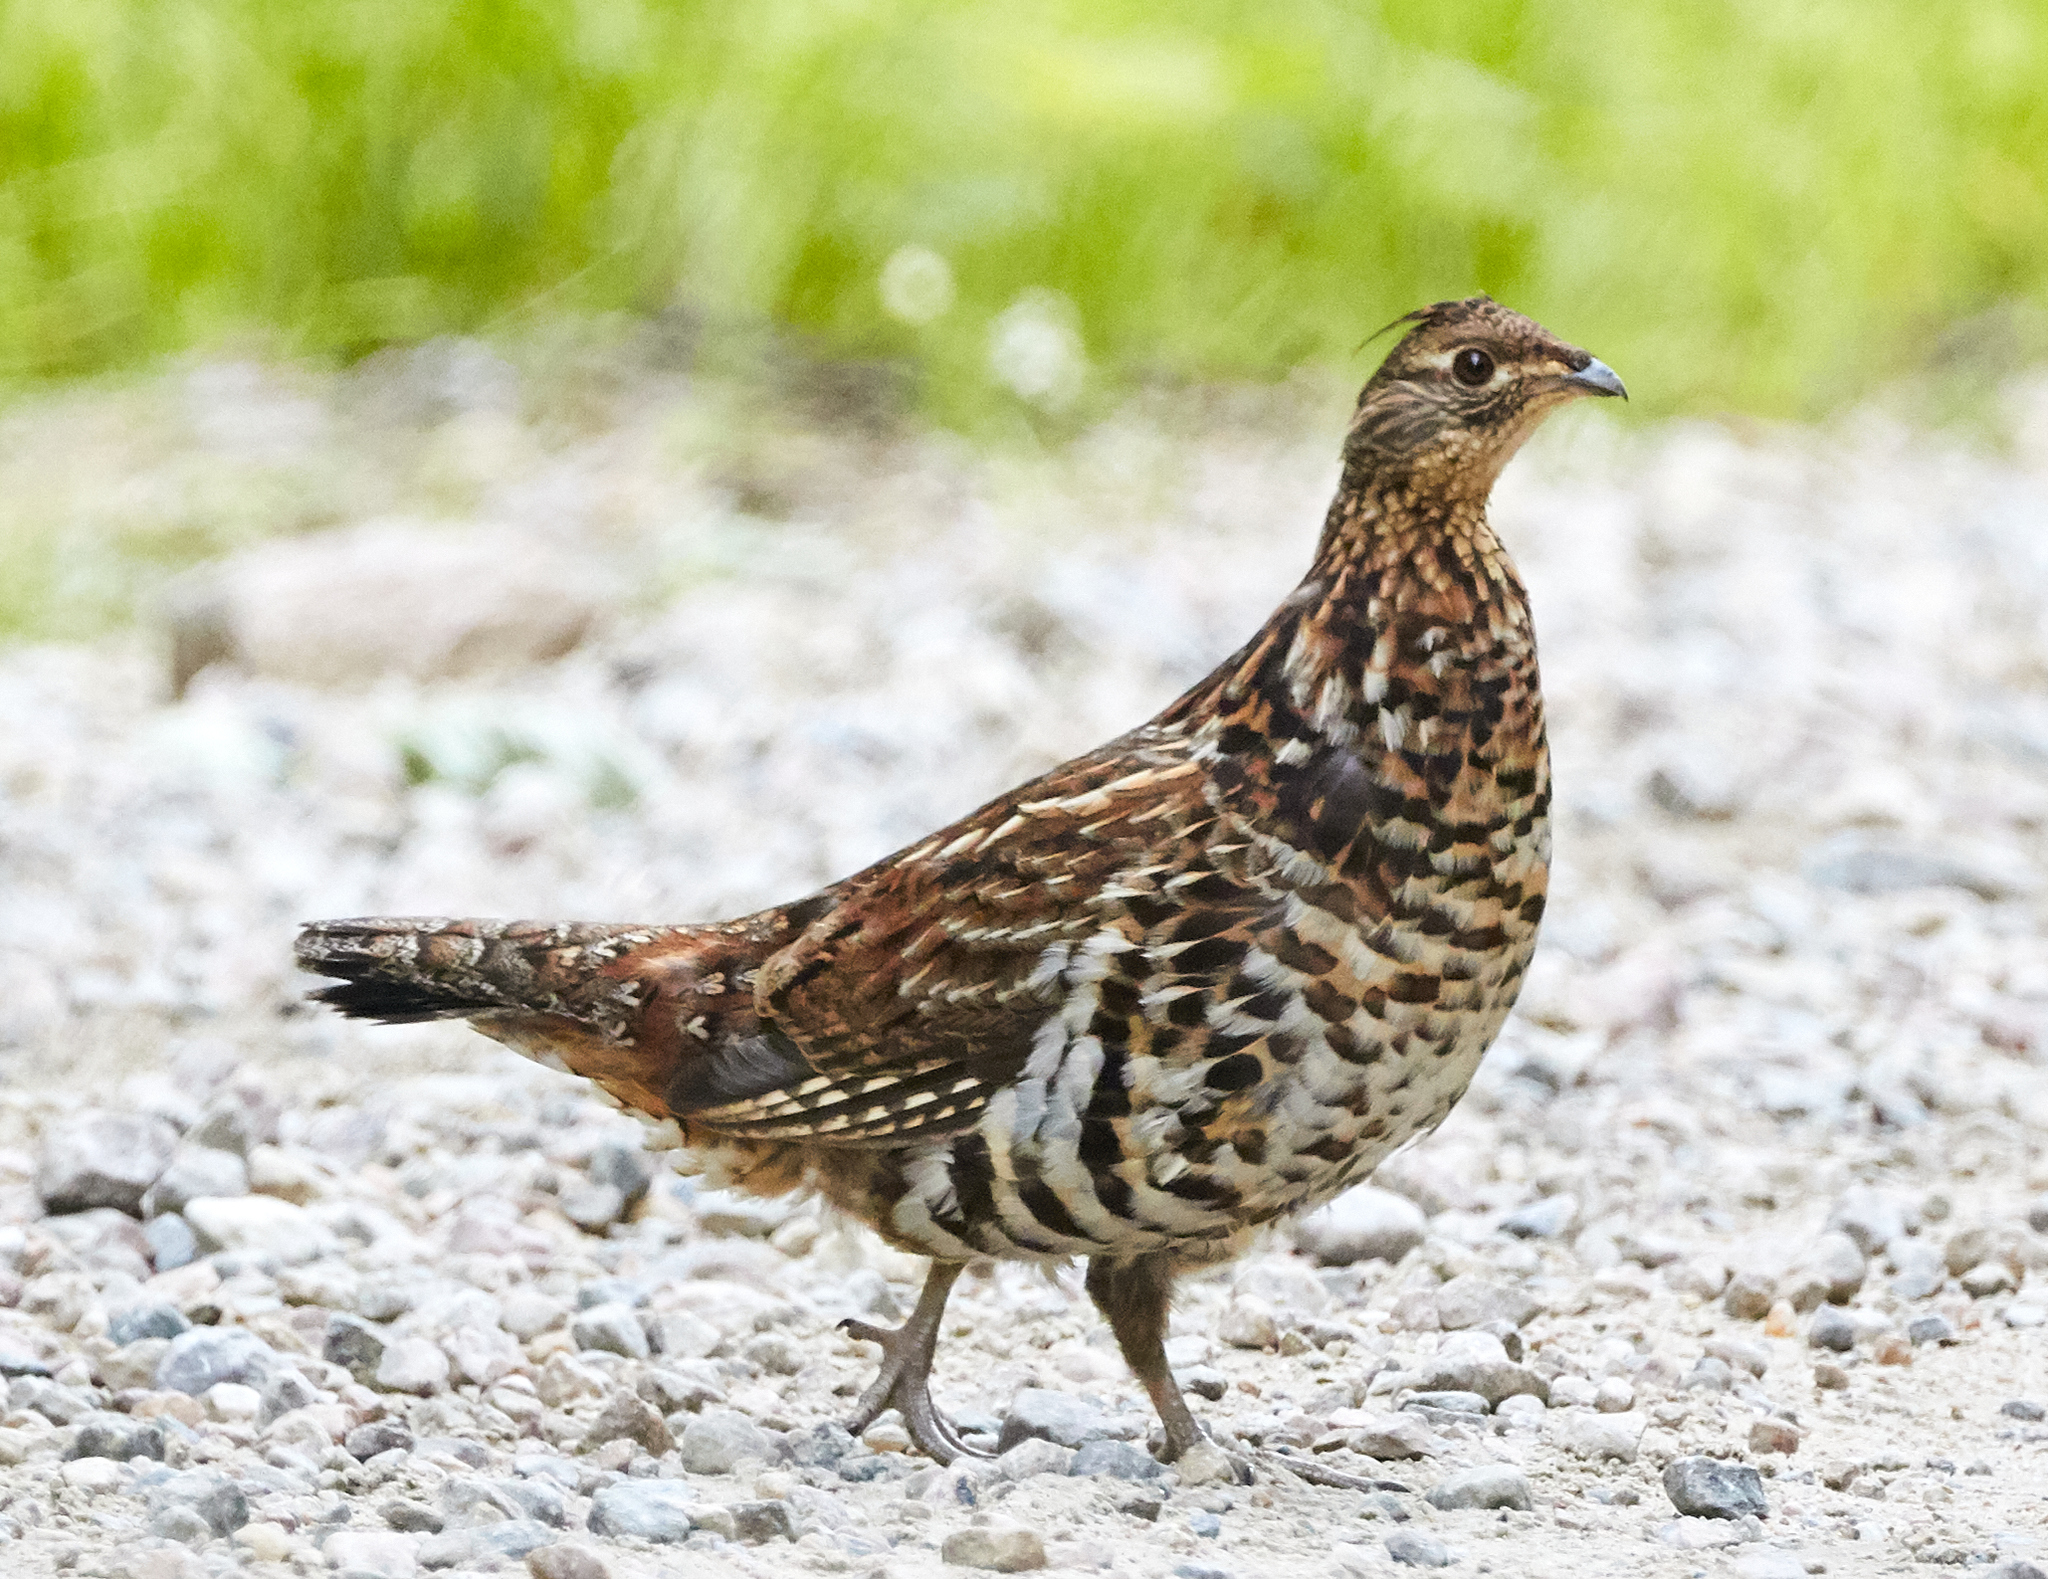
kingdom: Animalia
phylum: Chordata
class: Aves
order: Galliformes
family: Phasianidae
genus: Bonasa
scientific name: Bonasa umbellus
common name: Ruffed grouse
